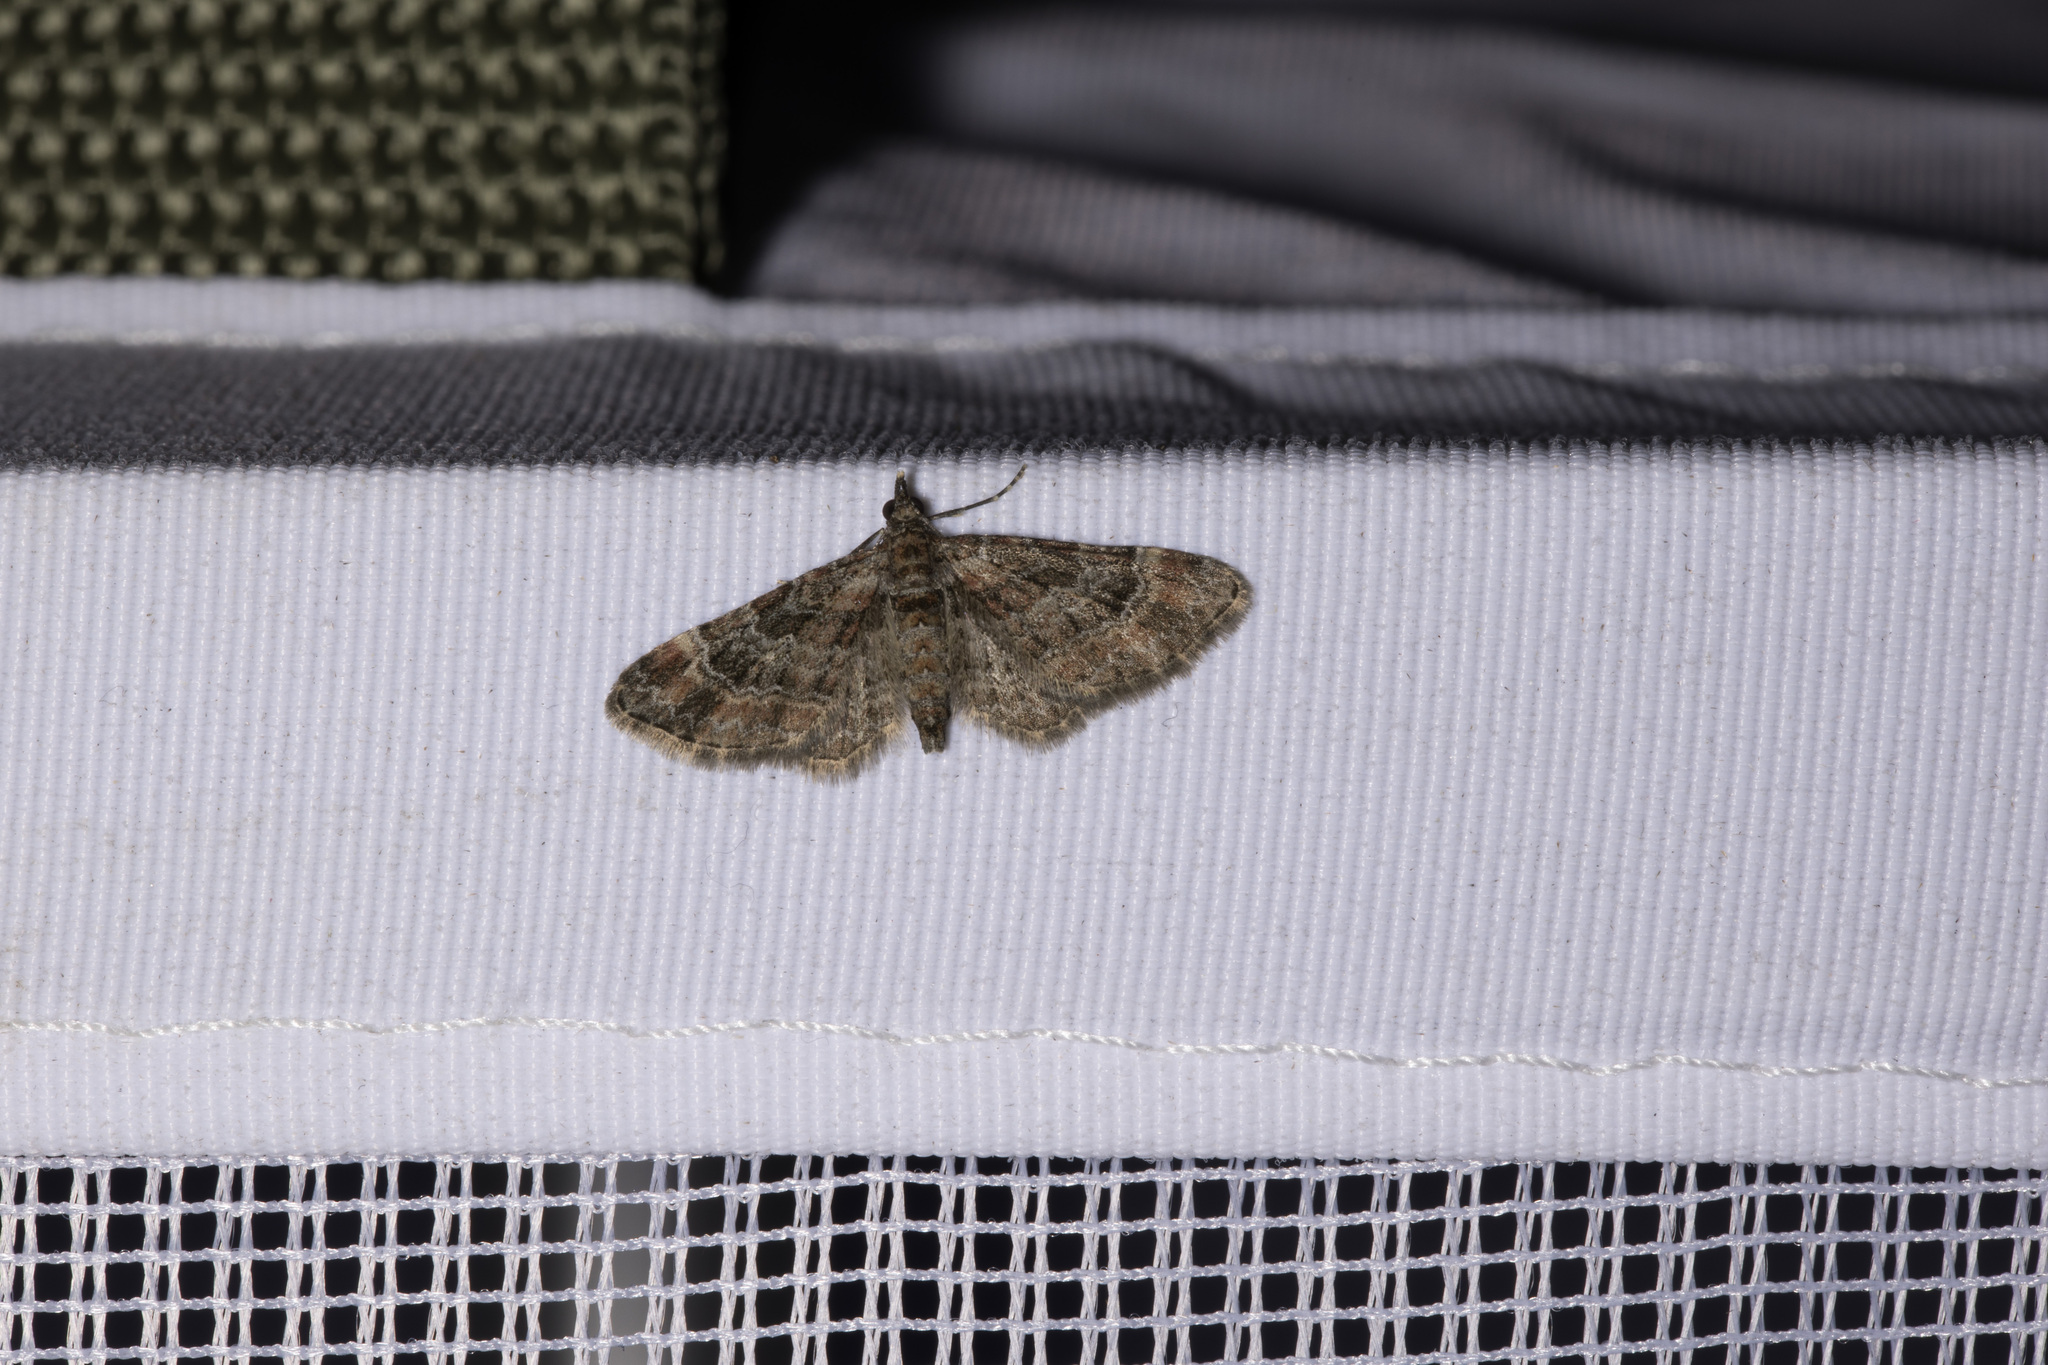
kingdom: Animalia
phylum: Arthropoda
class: Insecta
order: Lepidoptera
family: Geometridae
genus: Gymnoscelis
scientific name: Gymnoscelis rufifasciata
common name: Double-striped pug
